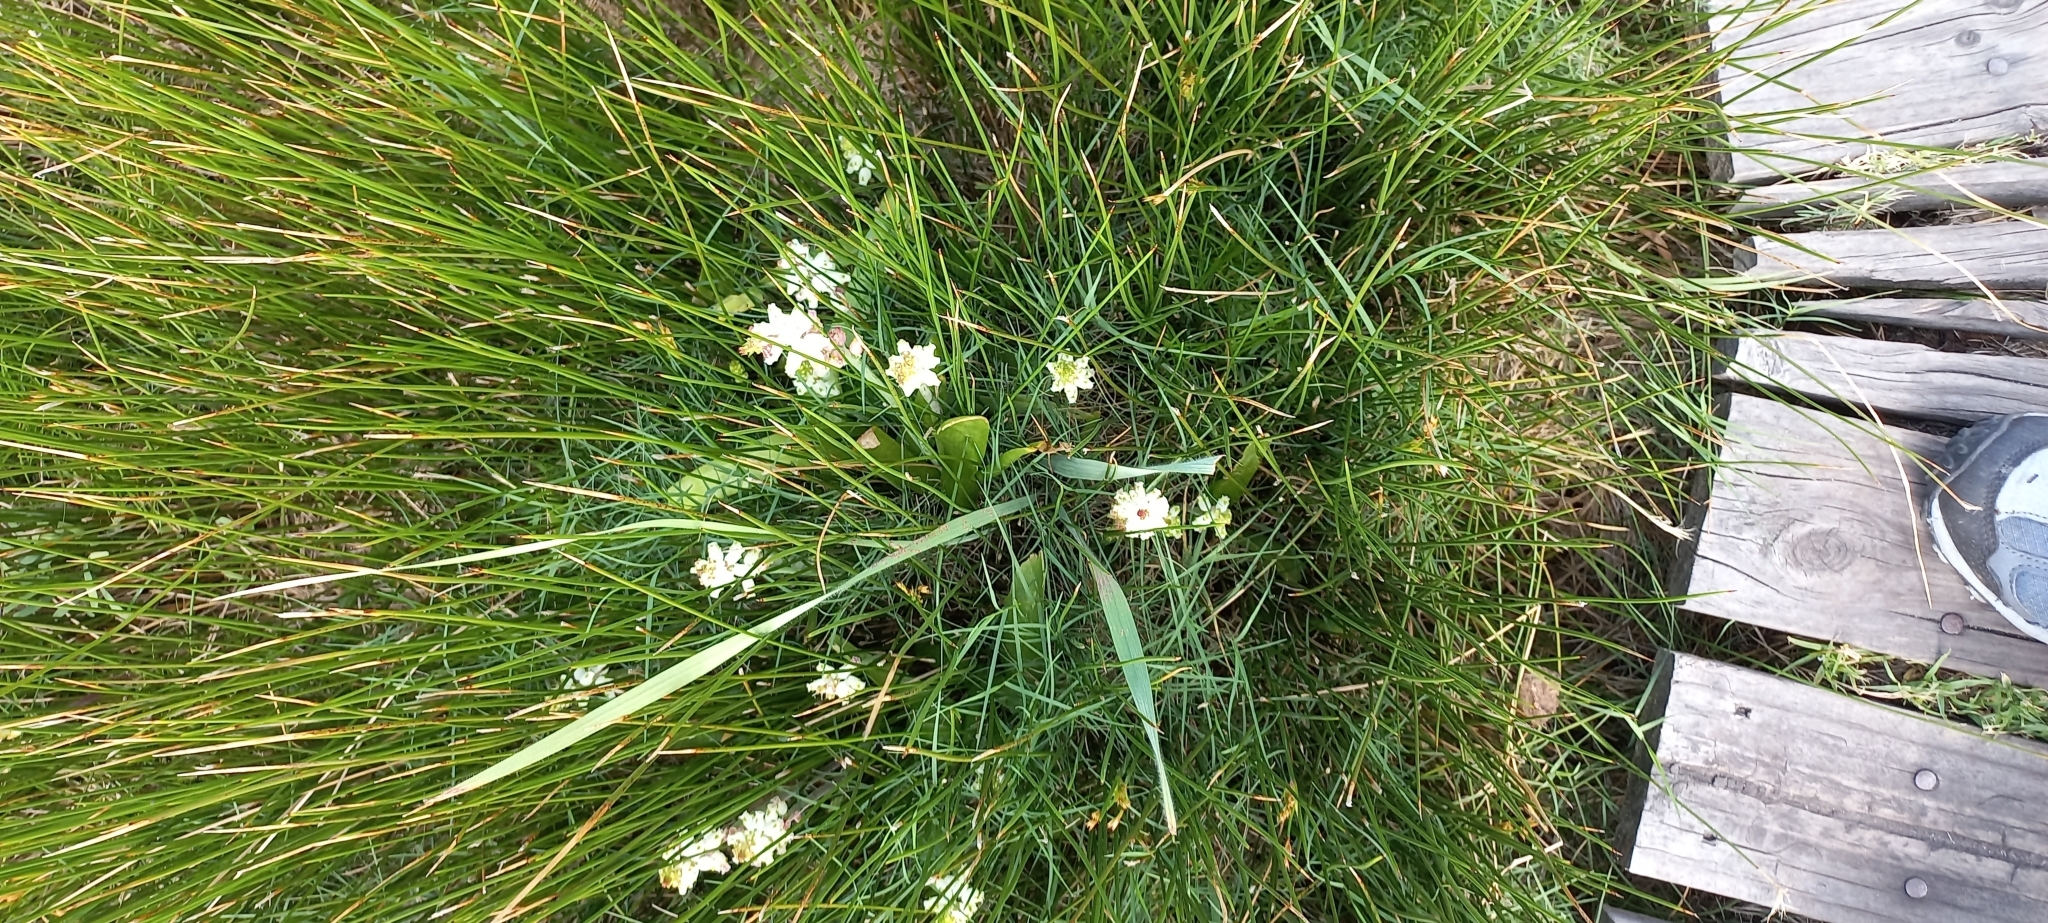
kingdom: Plantae
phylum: Tracheophyta
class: Liliopsida
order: Asparagales
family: Asparagaceae
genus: Lachenalia
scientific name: Lachenalia peersii
